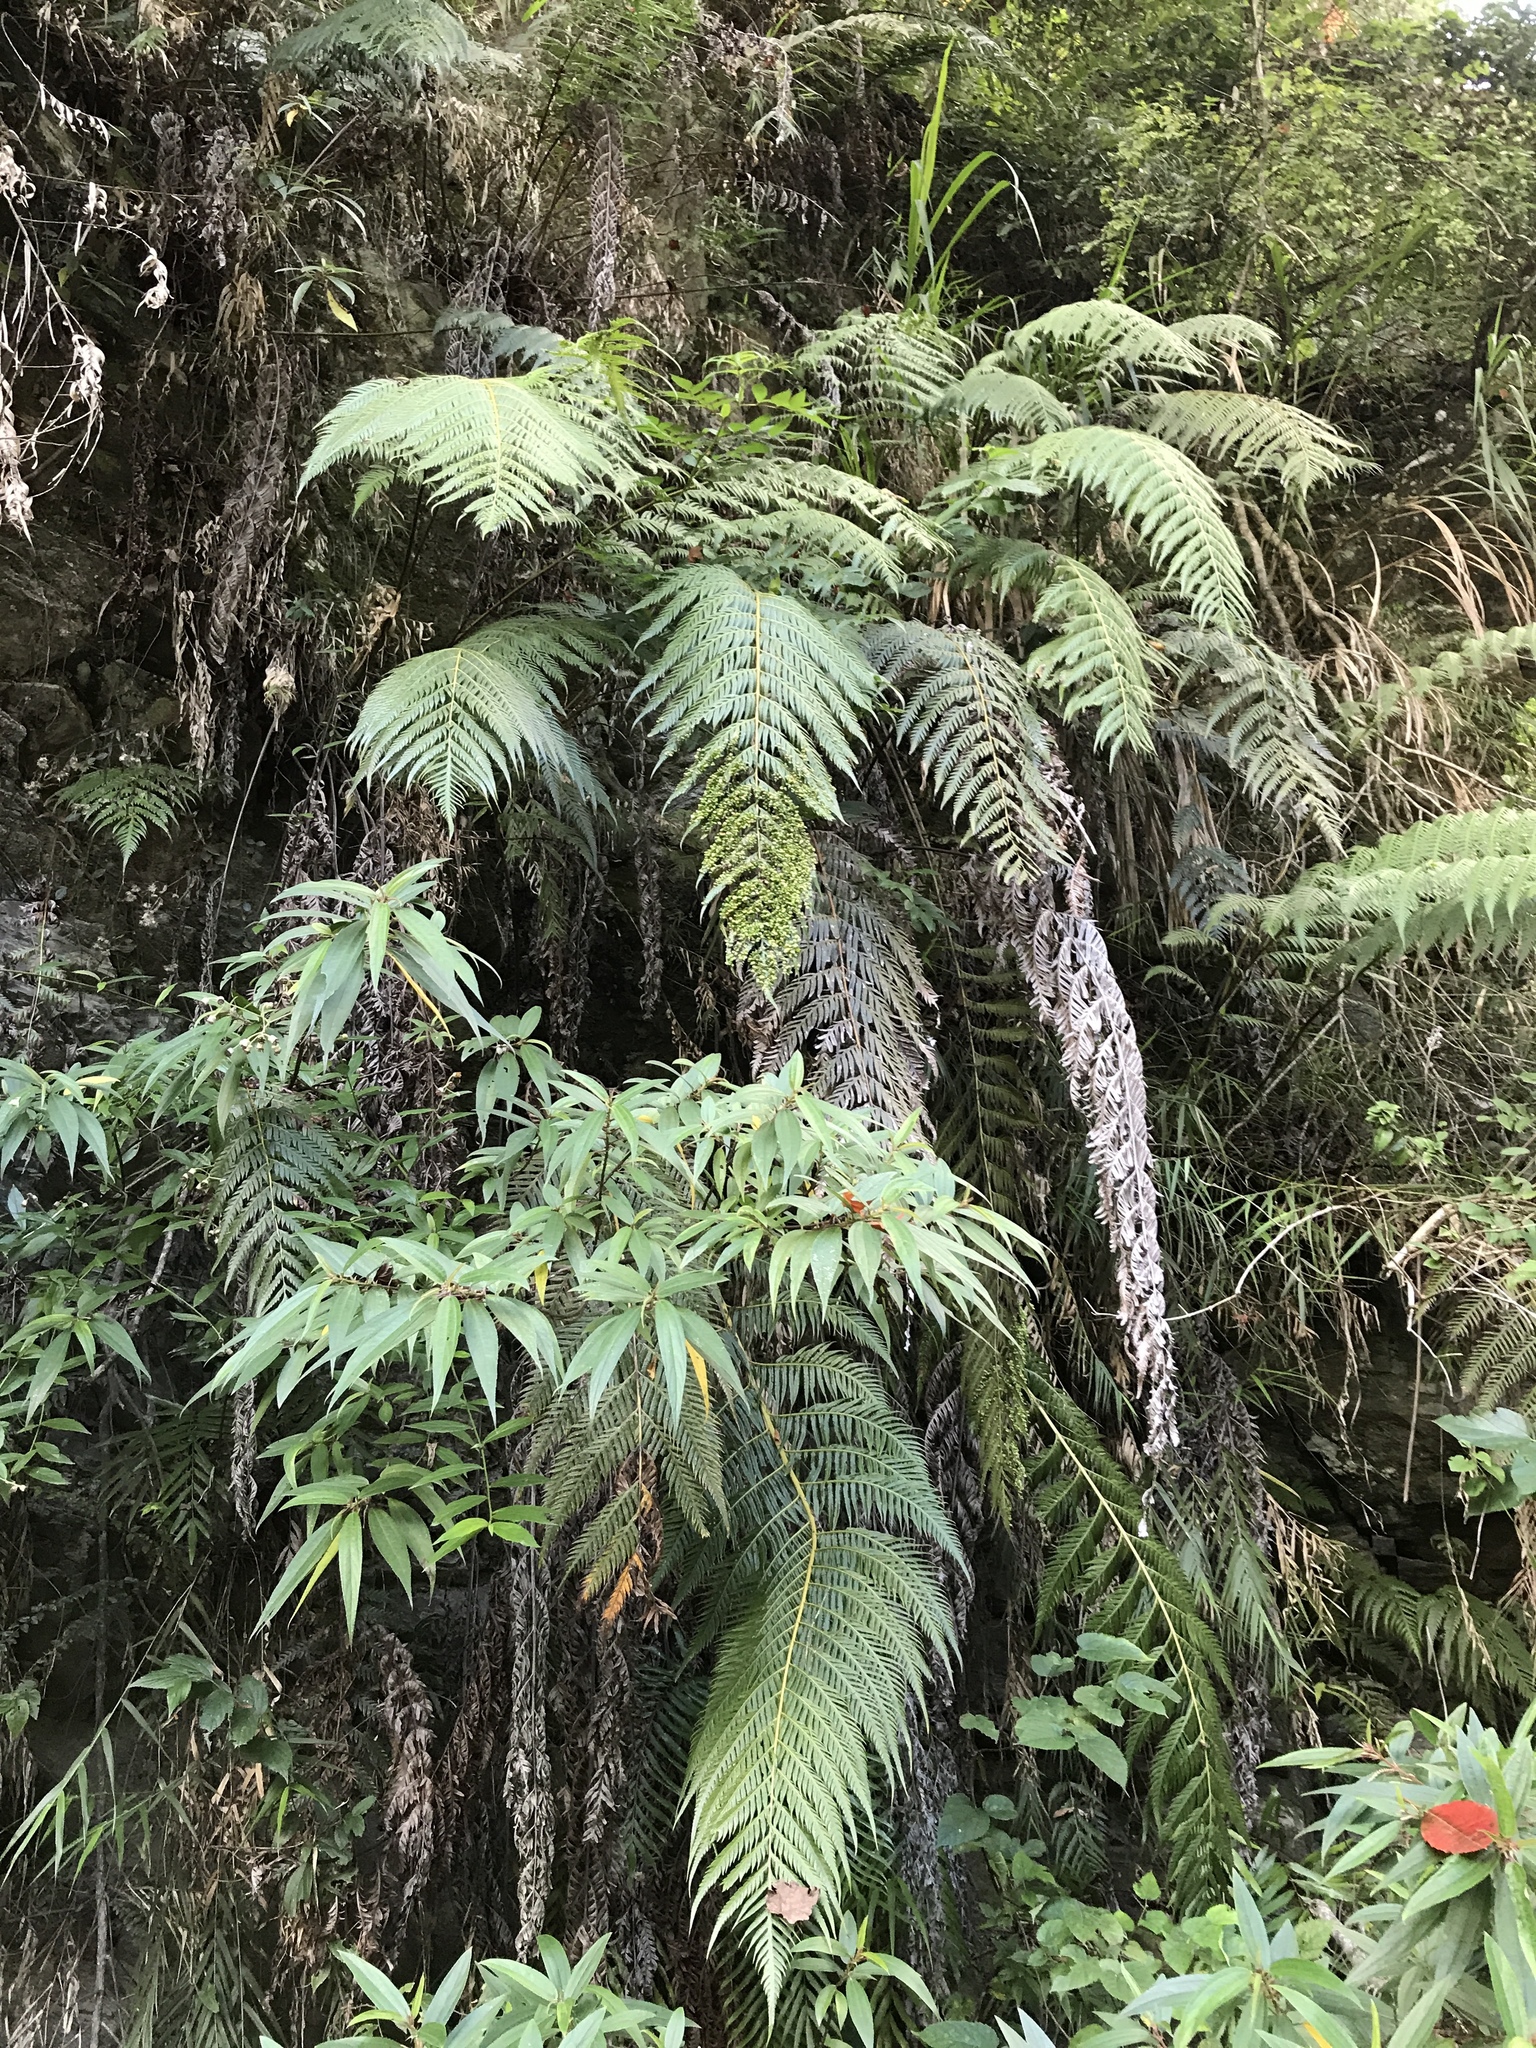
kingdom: Plantae
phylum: Tracheophyta
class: Polypodiopsida
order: Polypodiales
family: Blechnaceae
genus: Woodwardia
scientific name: Woodwardia prolifera
